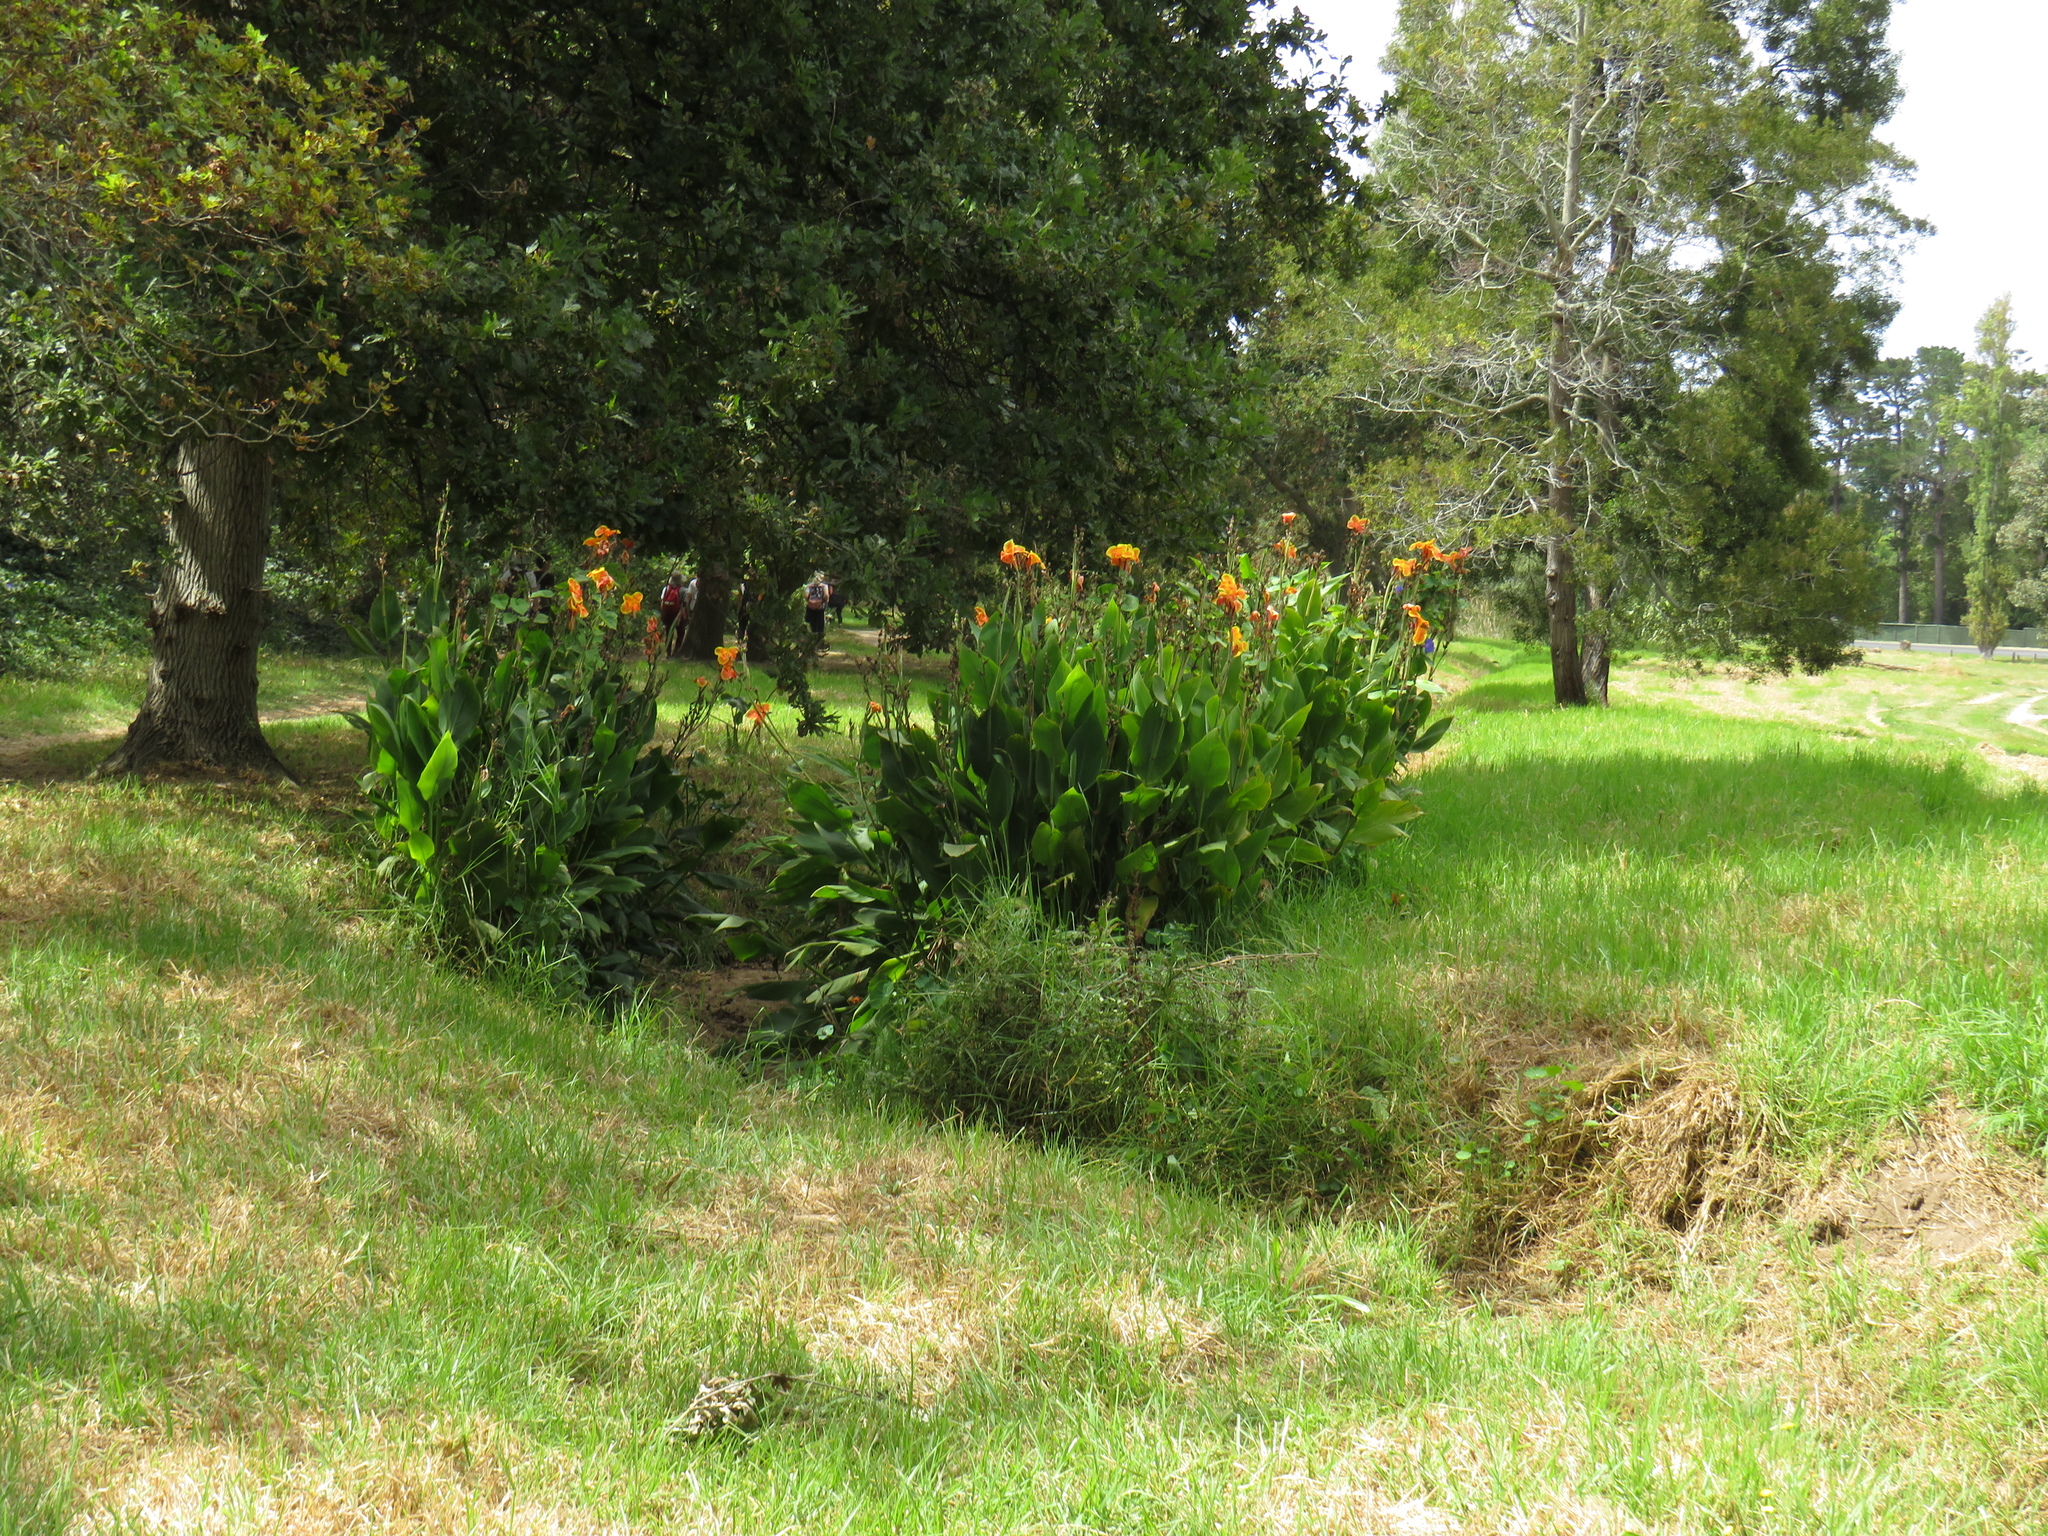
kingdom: Plantae
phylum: Tracheophyta
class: Liliopsida
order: Zingiberales
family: Cannaceae
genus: Canna
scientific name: Canna hybrida
